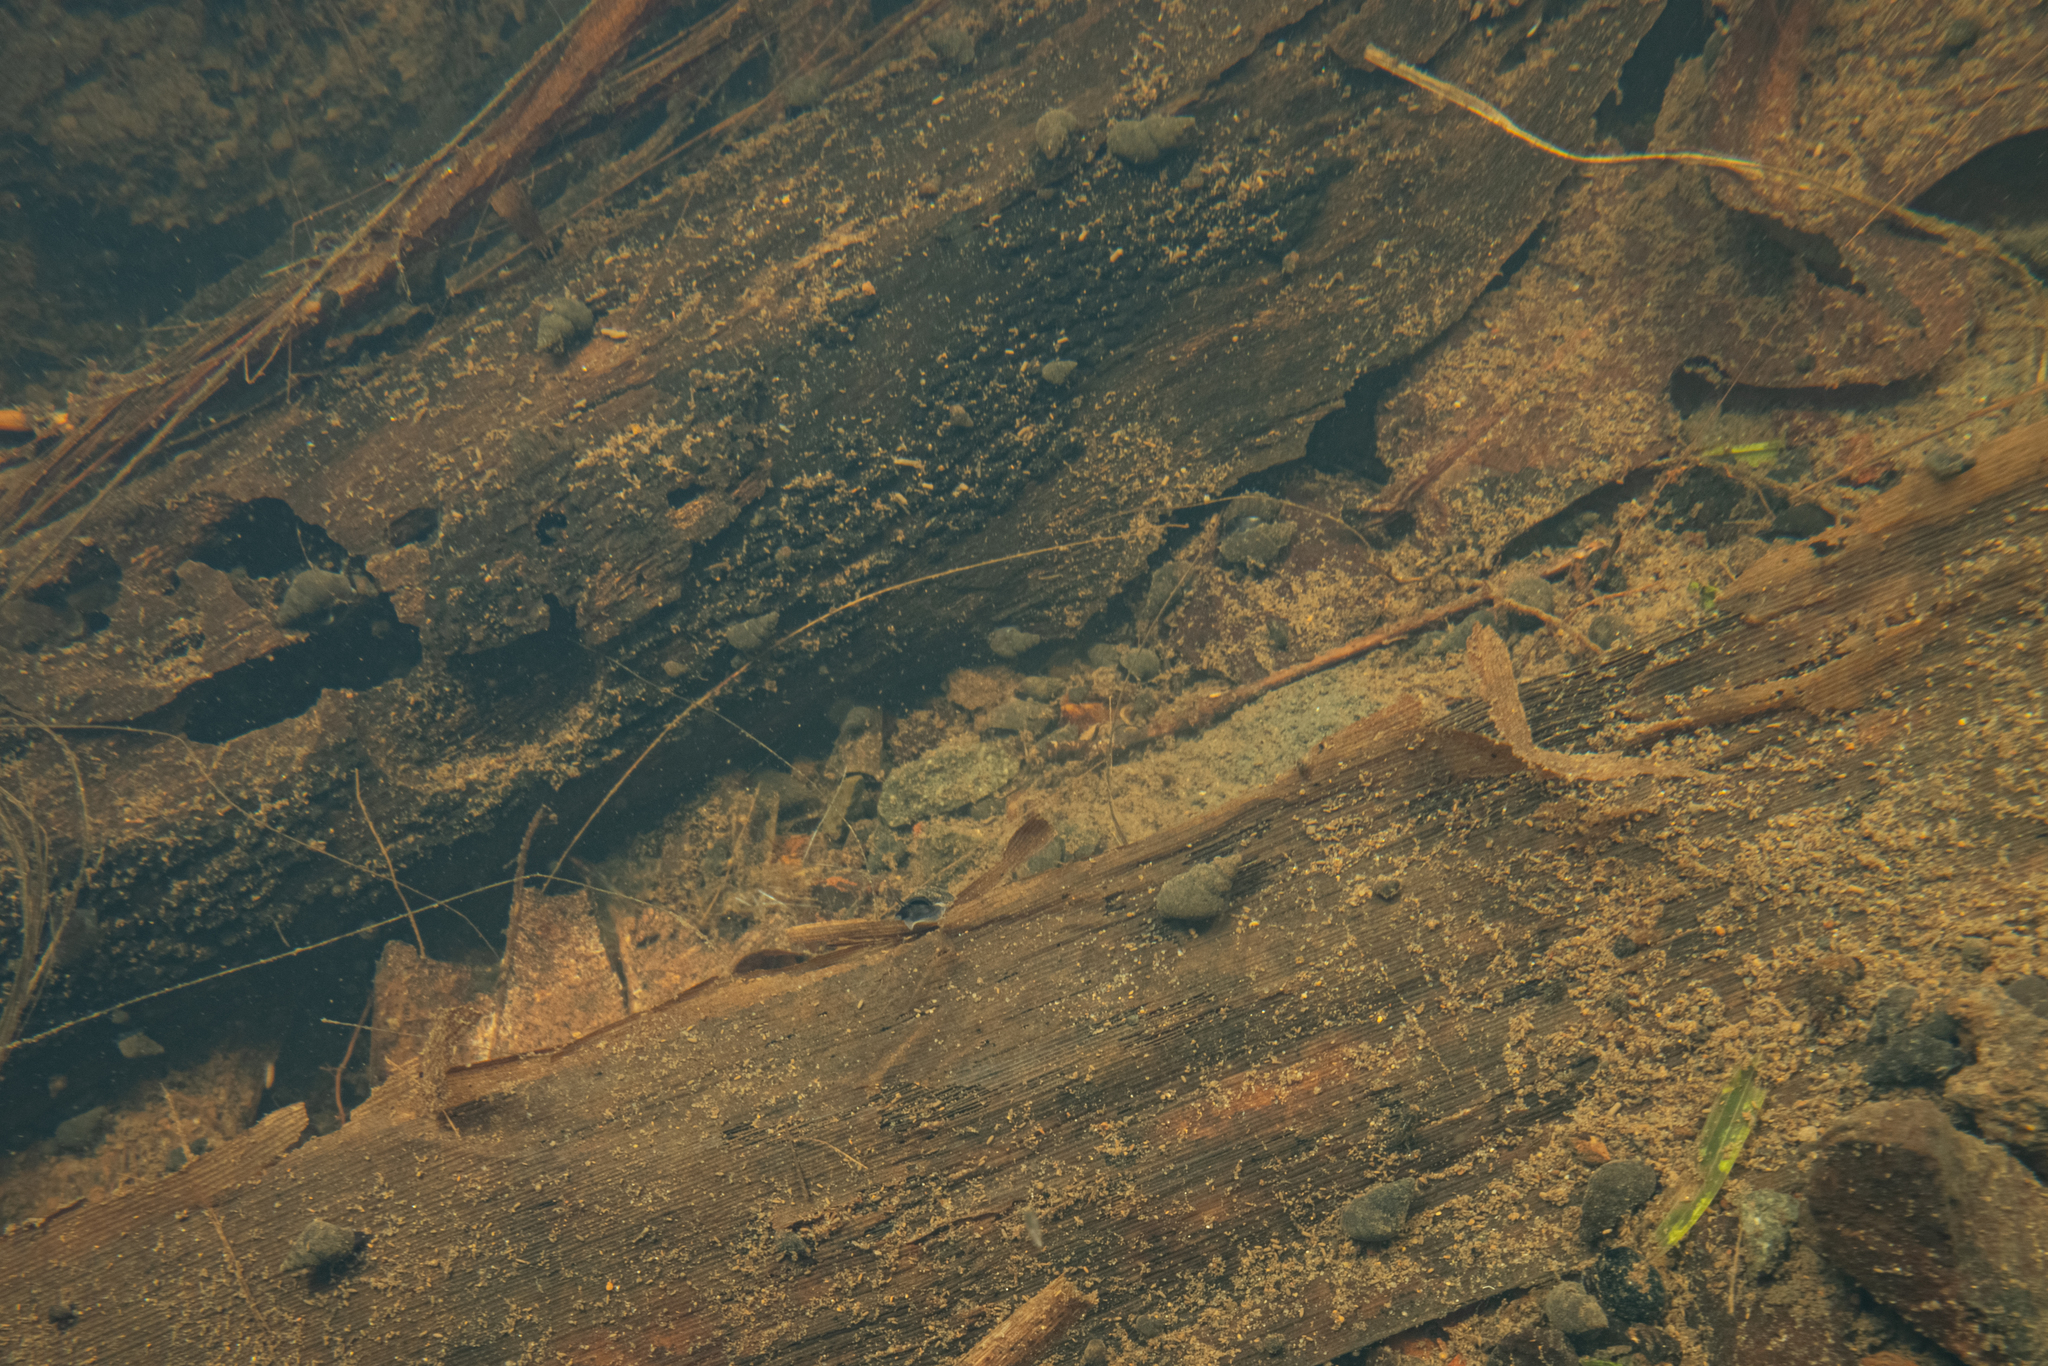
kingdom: Animalia
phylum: Mollusca
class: Gastropoda
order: Littorinimorpha
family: Tateidae
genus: Potamopyrgus
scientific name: Potamopyrgus antipodarum
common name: Jenkins' spire snail
